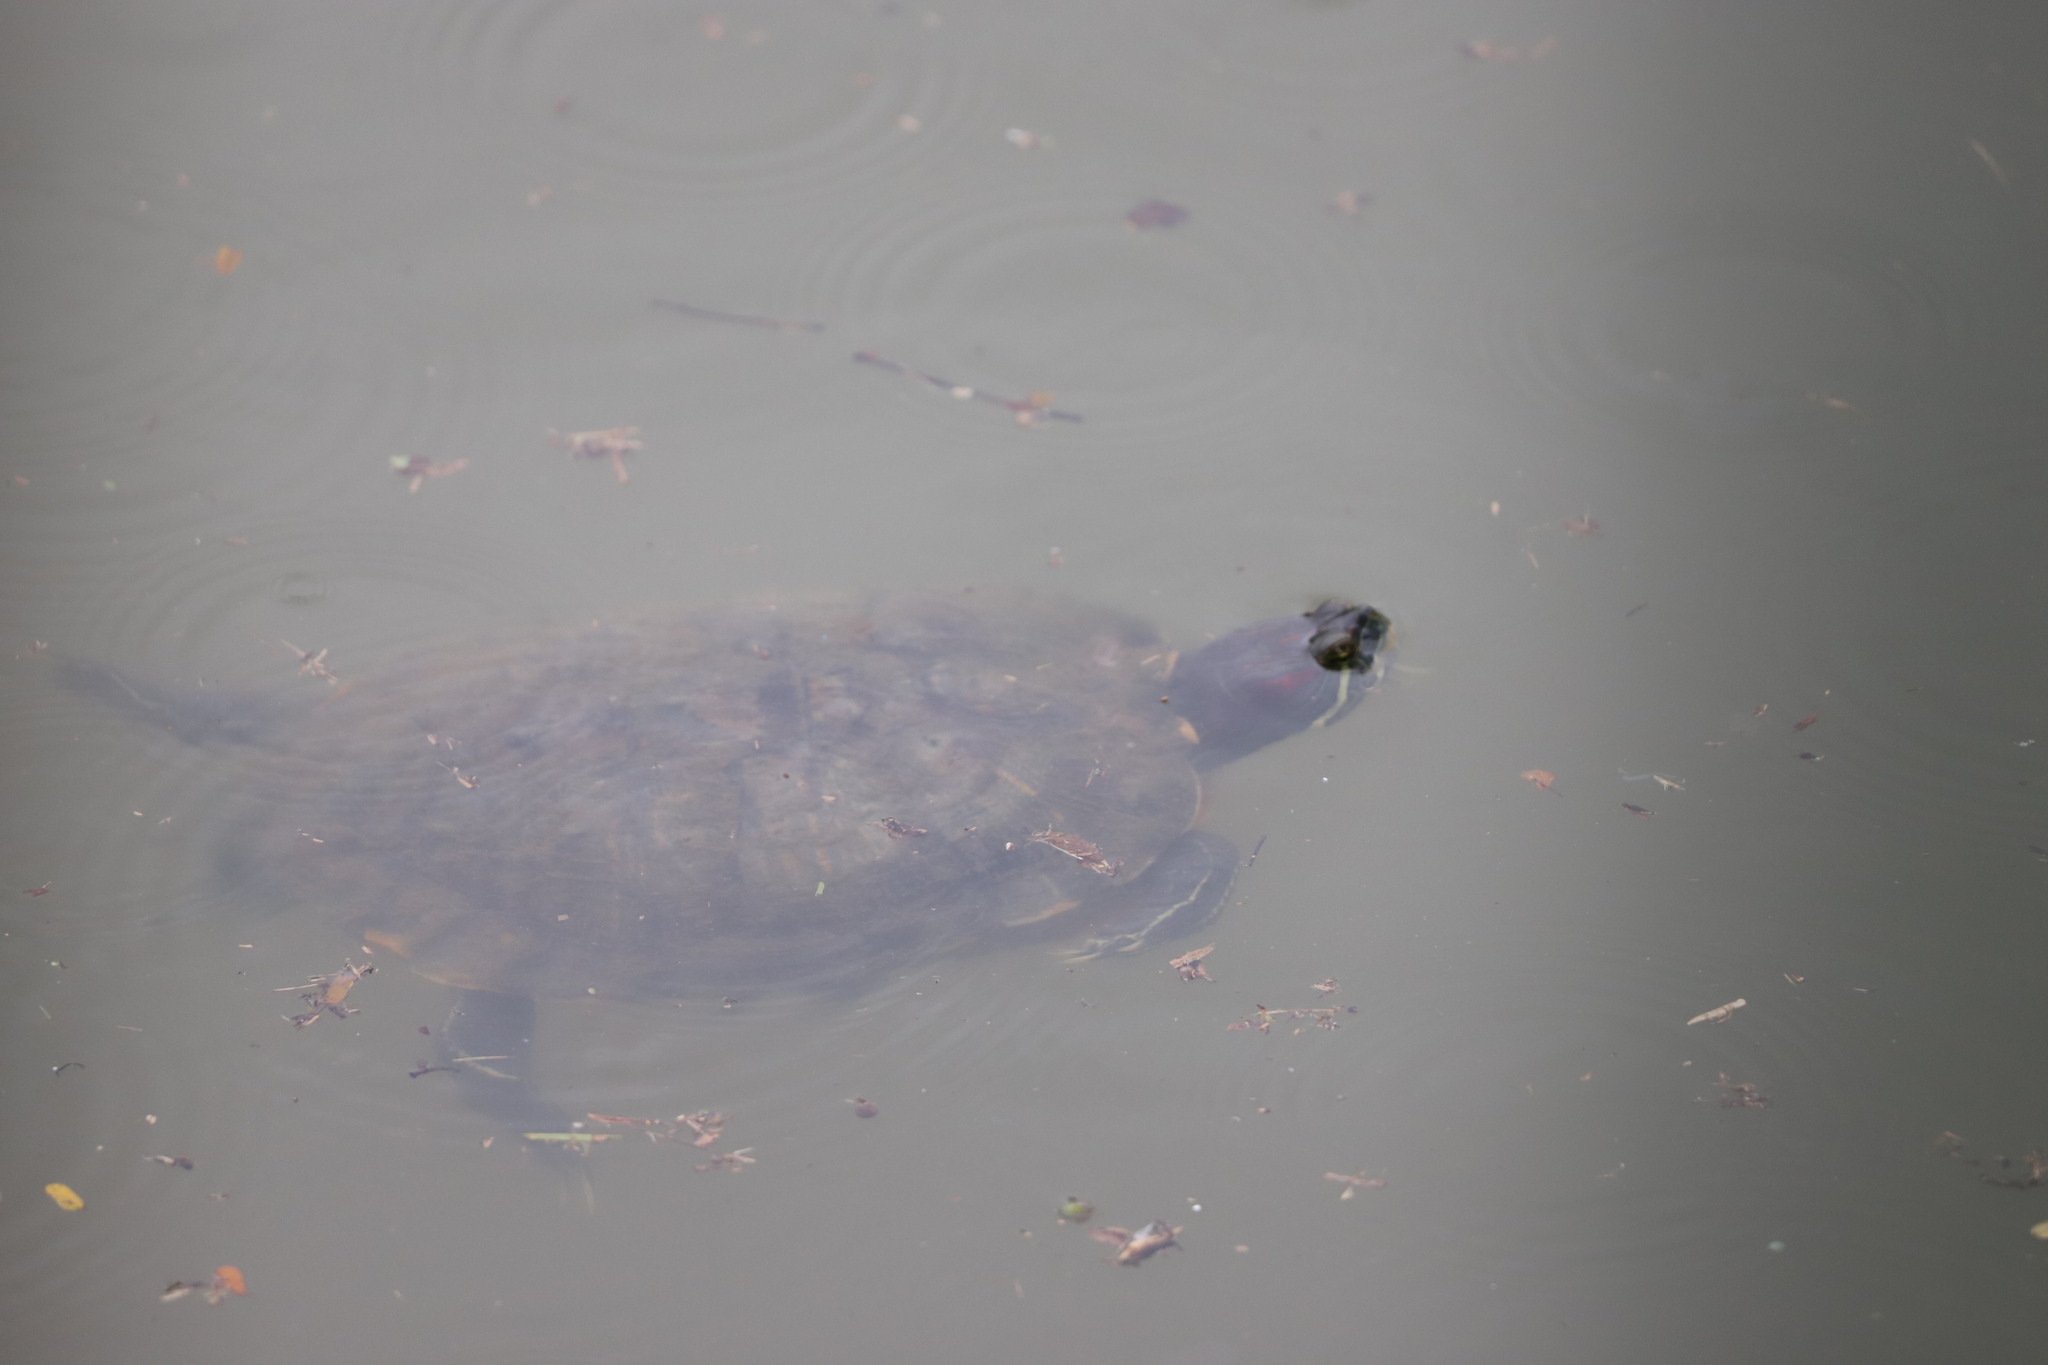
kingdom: Animalia
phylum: Chordata
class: Testudines
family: Emydidae
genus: Trachemys
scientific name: Trachemys scripta
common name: Slider
